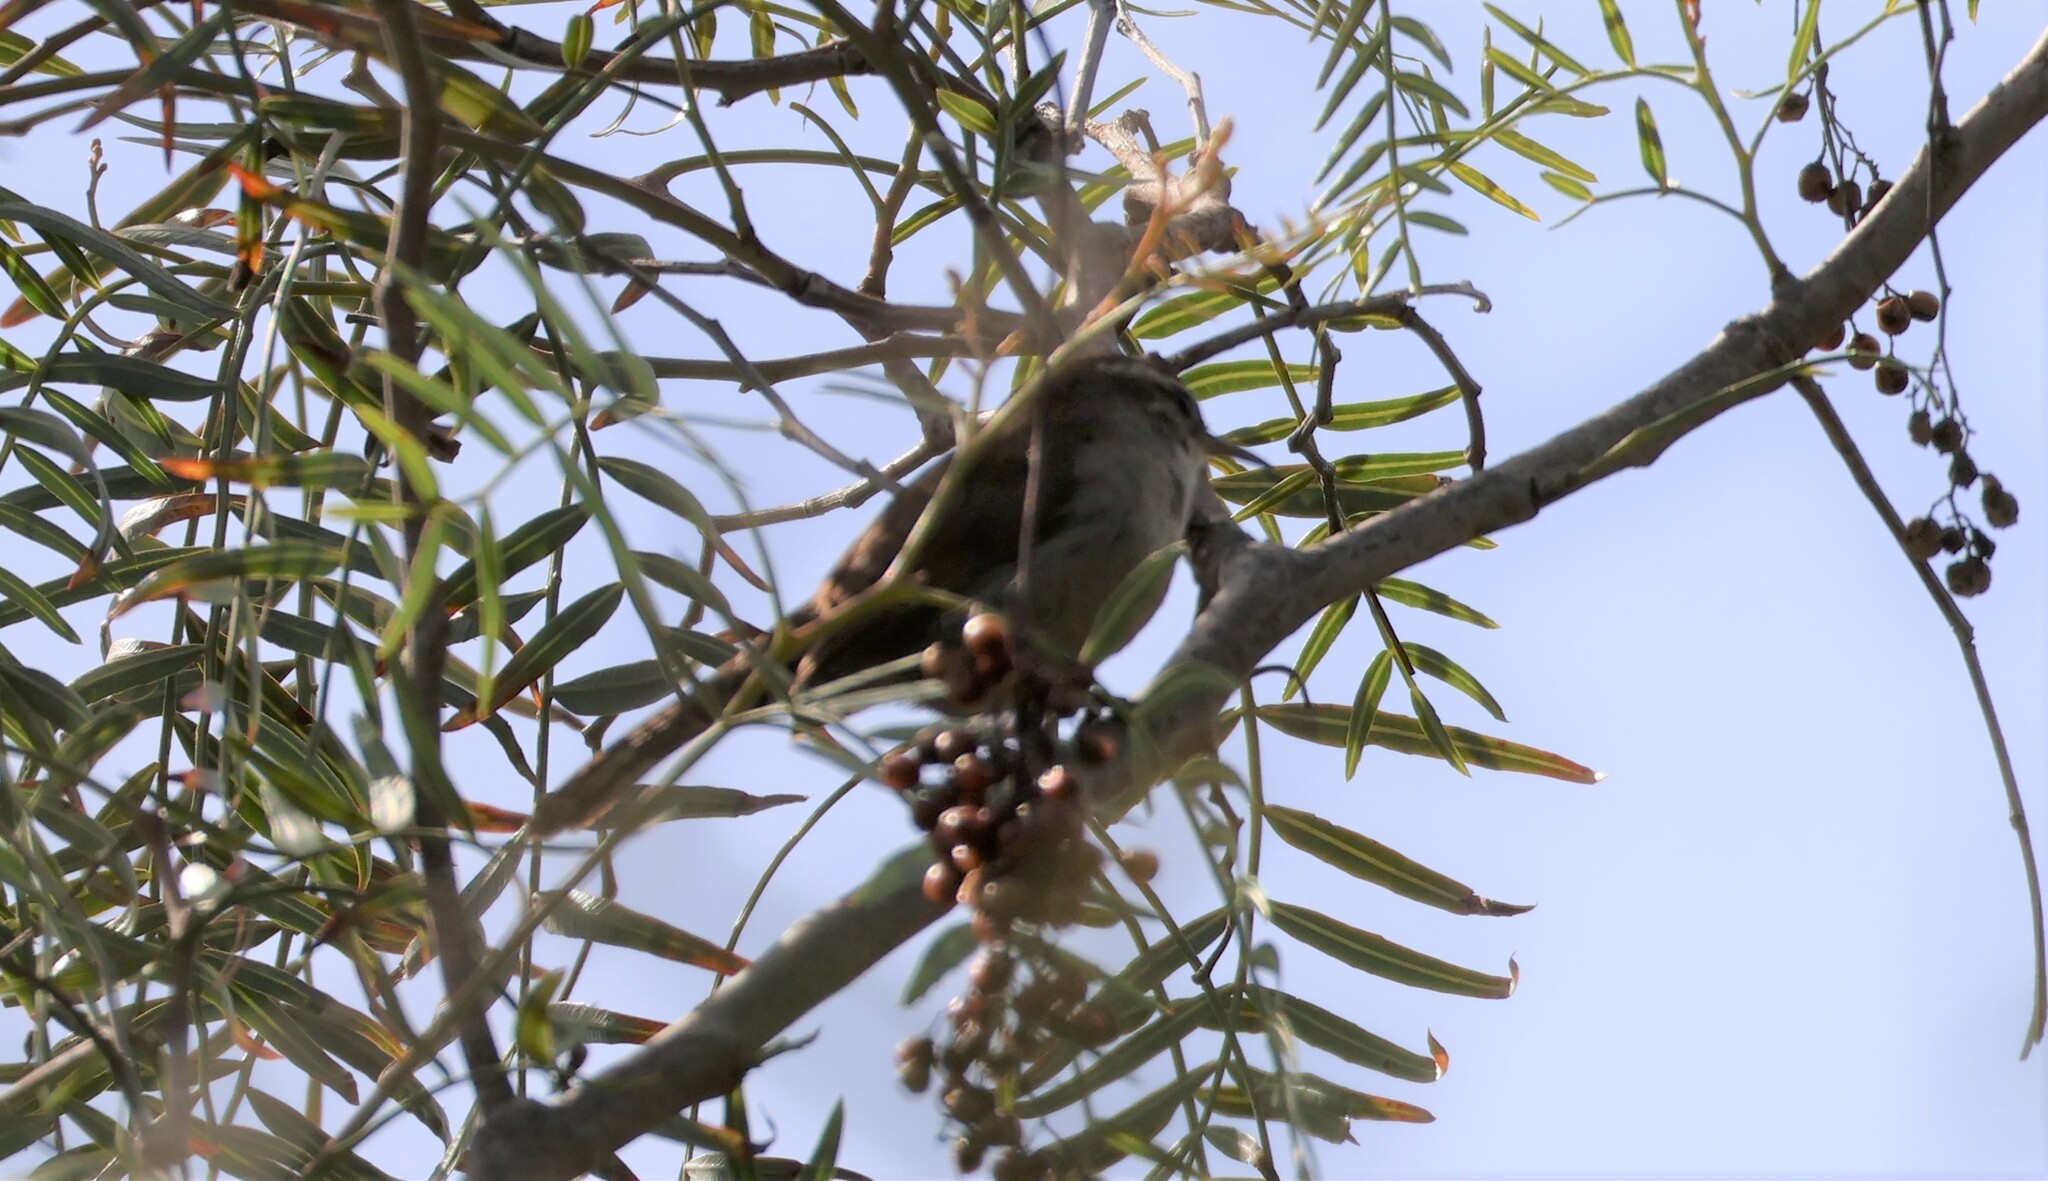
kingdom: Animalia
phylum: Chordata
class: Aves
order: Passeriformes
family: Troglodytidae
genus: Thryomanes
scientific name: Thryomanes bewickii
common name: Bewick's wren
